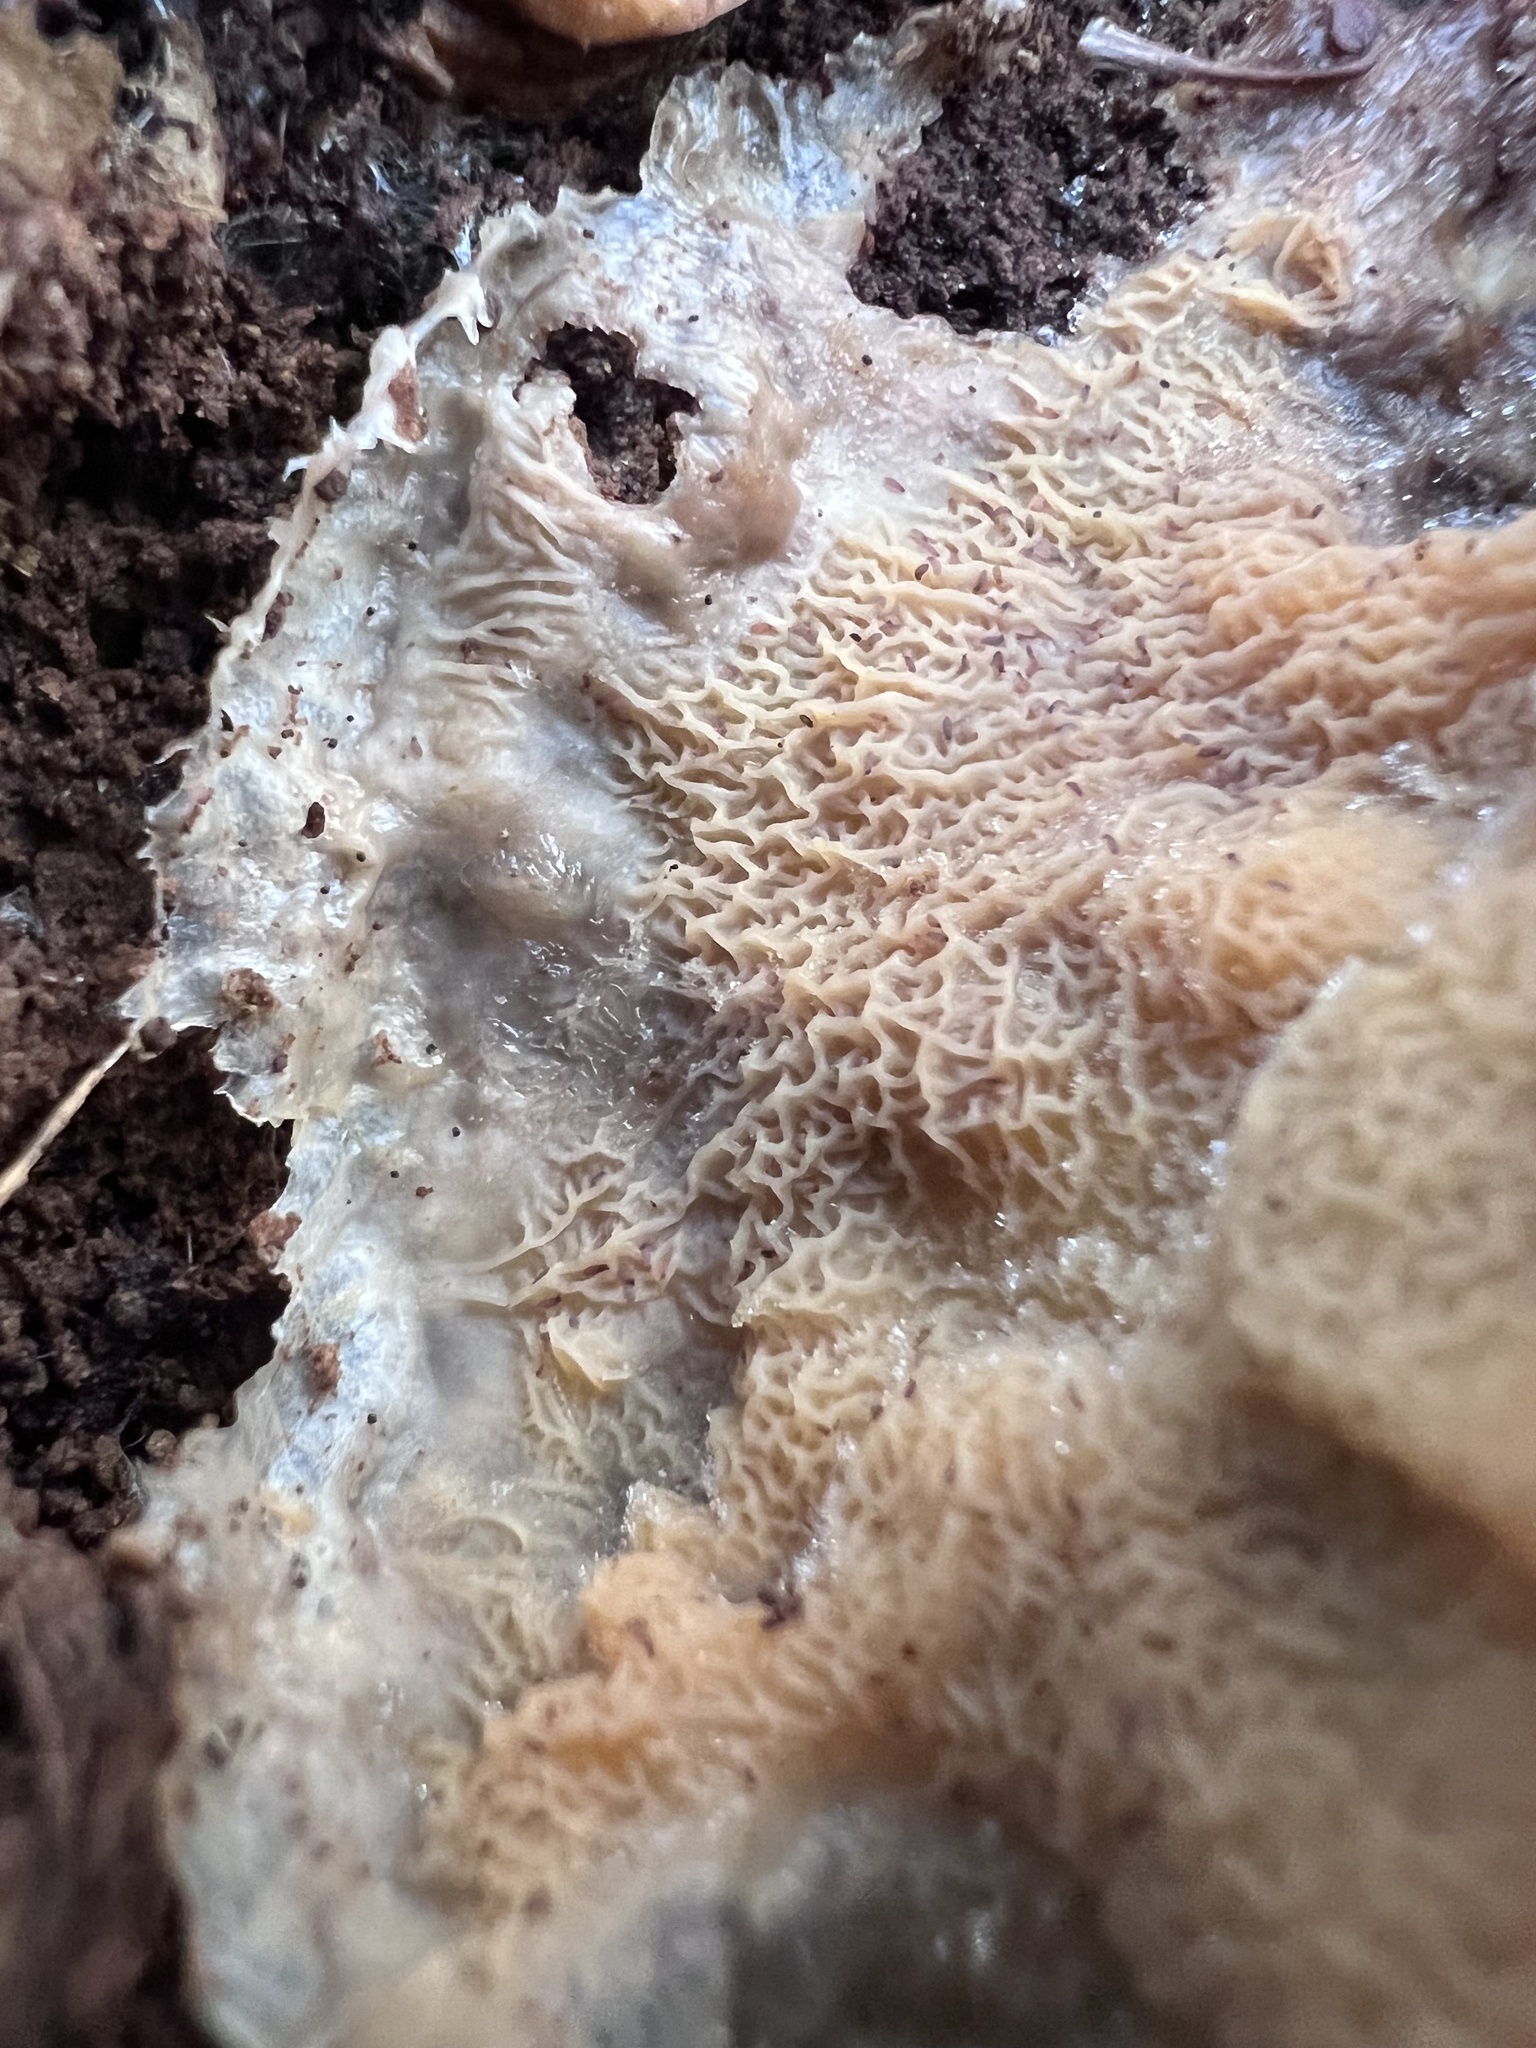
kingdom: Fungi
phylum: Basidiomycota
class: Agaricomycetes
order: Polyporales
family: Meruliaceae
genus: Phlebia
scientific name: Phlebia tremellosa
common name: Jelly rot
